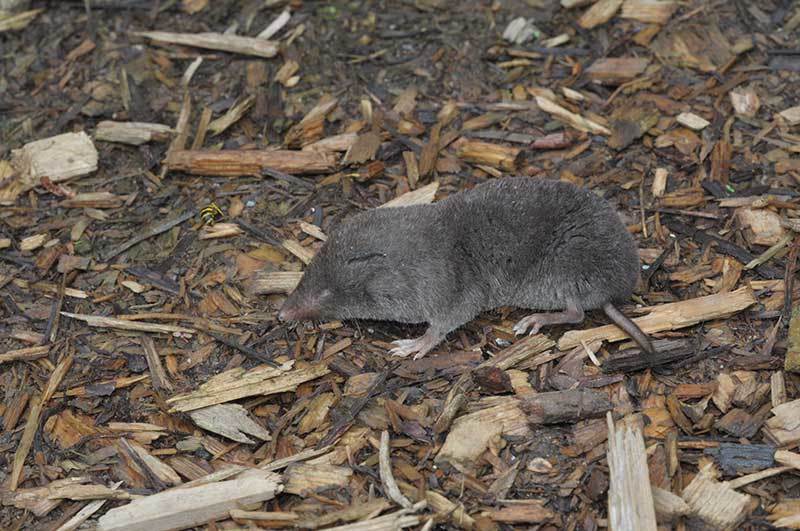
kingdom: Animalia
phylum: Chordata
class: Mammalia
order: Soricomorpha
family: Soricidae
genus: Blarina
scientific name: Blarina brevicauda
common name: Northern short-tailed shrew
